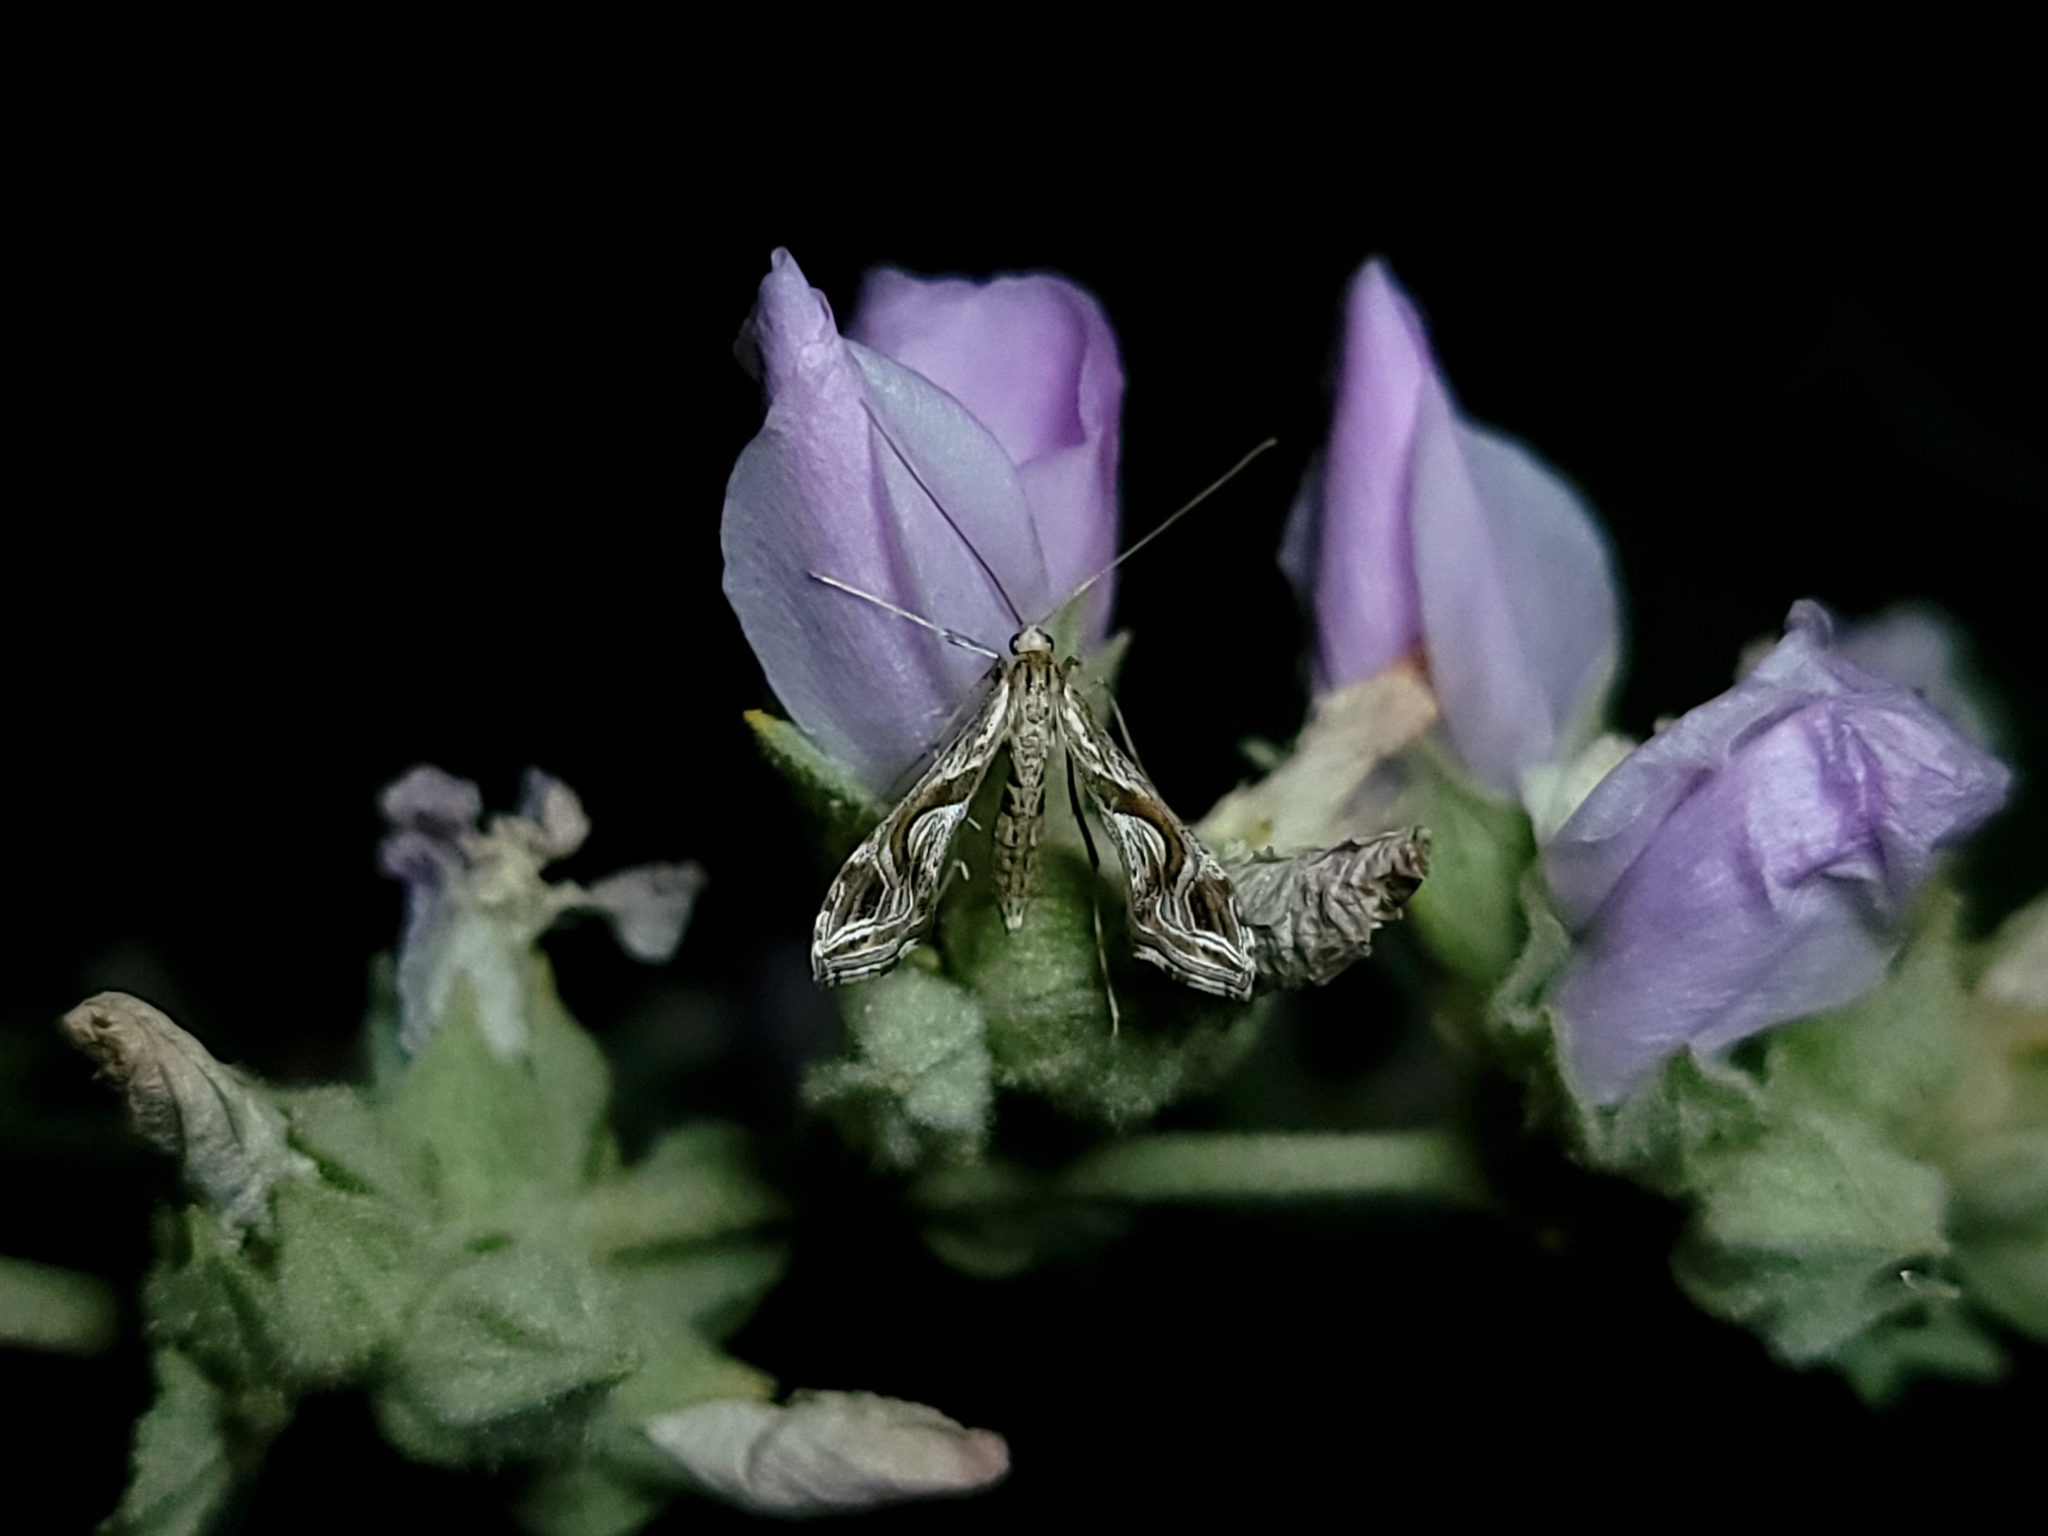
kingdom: Animalia
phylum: Arthropoda
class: Insecta
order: Lepidoptera
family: Crambidae
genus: Lineodes
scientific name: Lineodes integra
